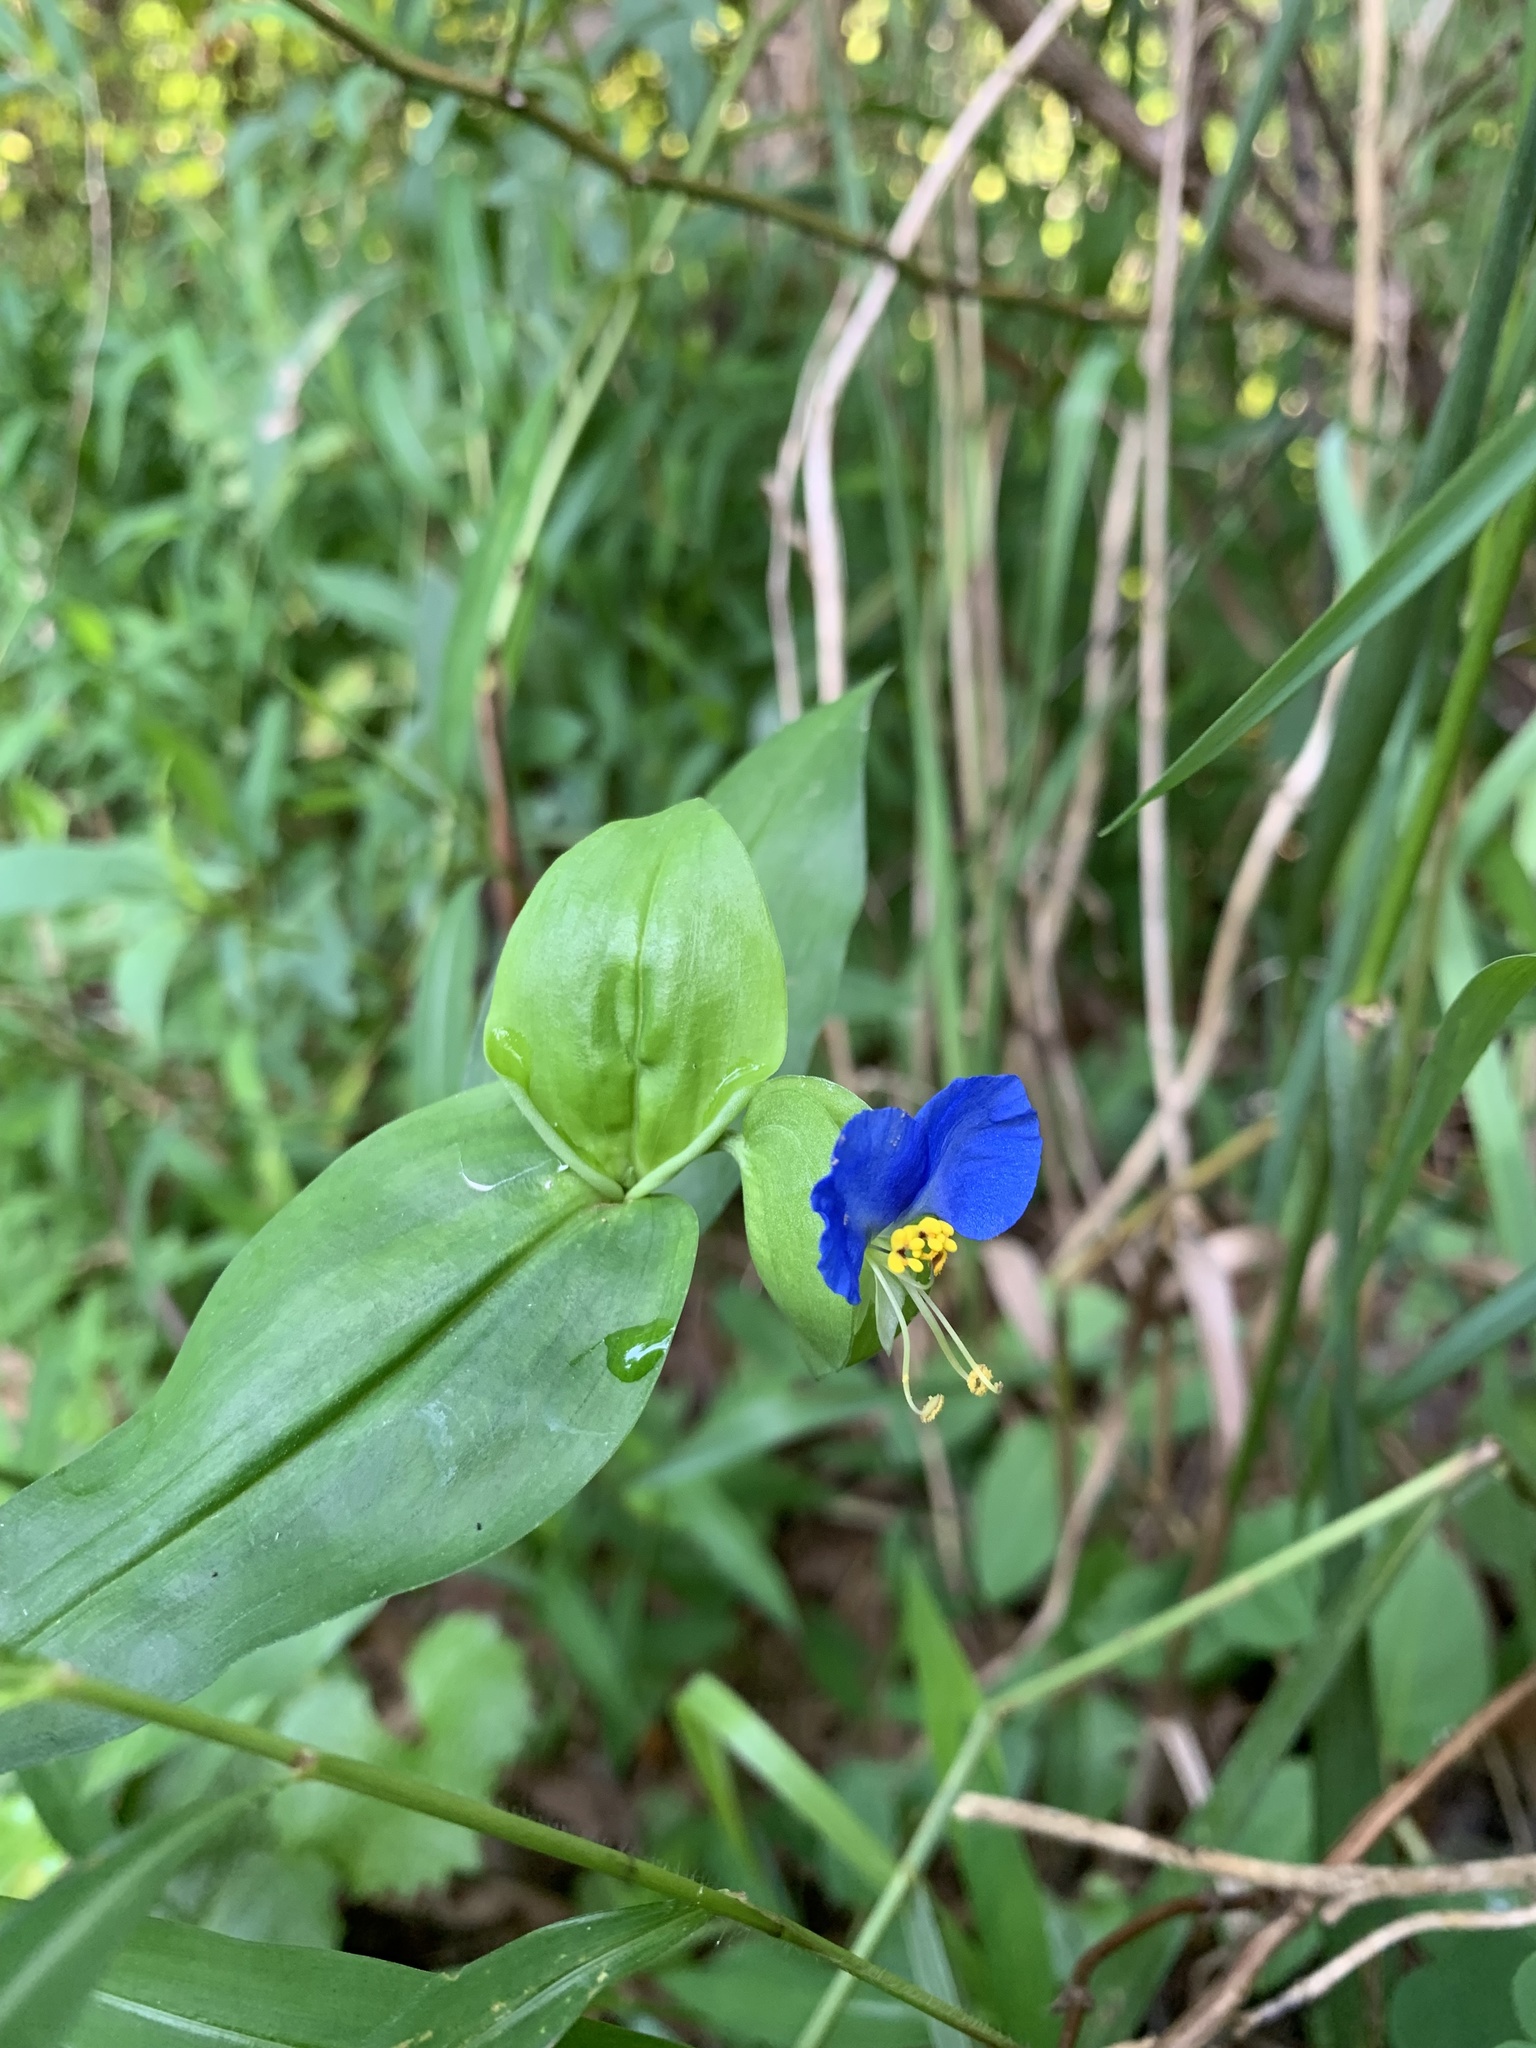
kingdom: Plantae
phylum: Tracheophyta
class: Liliopsida
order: Commelinales
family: Commelinaceae
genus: Commelina
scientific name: Commelina communis
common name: Asiatic dayflower
